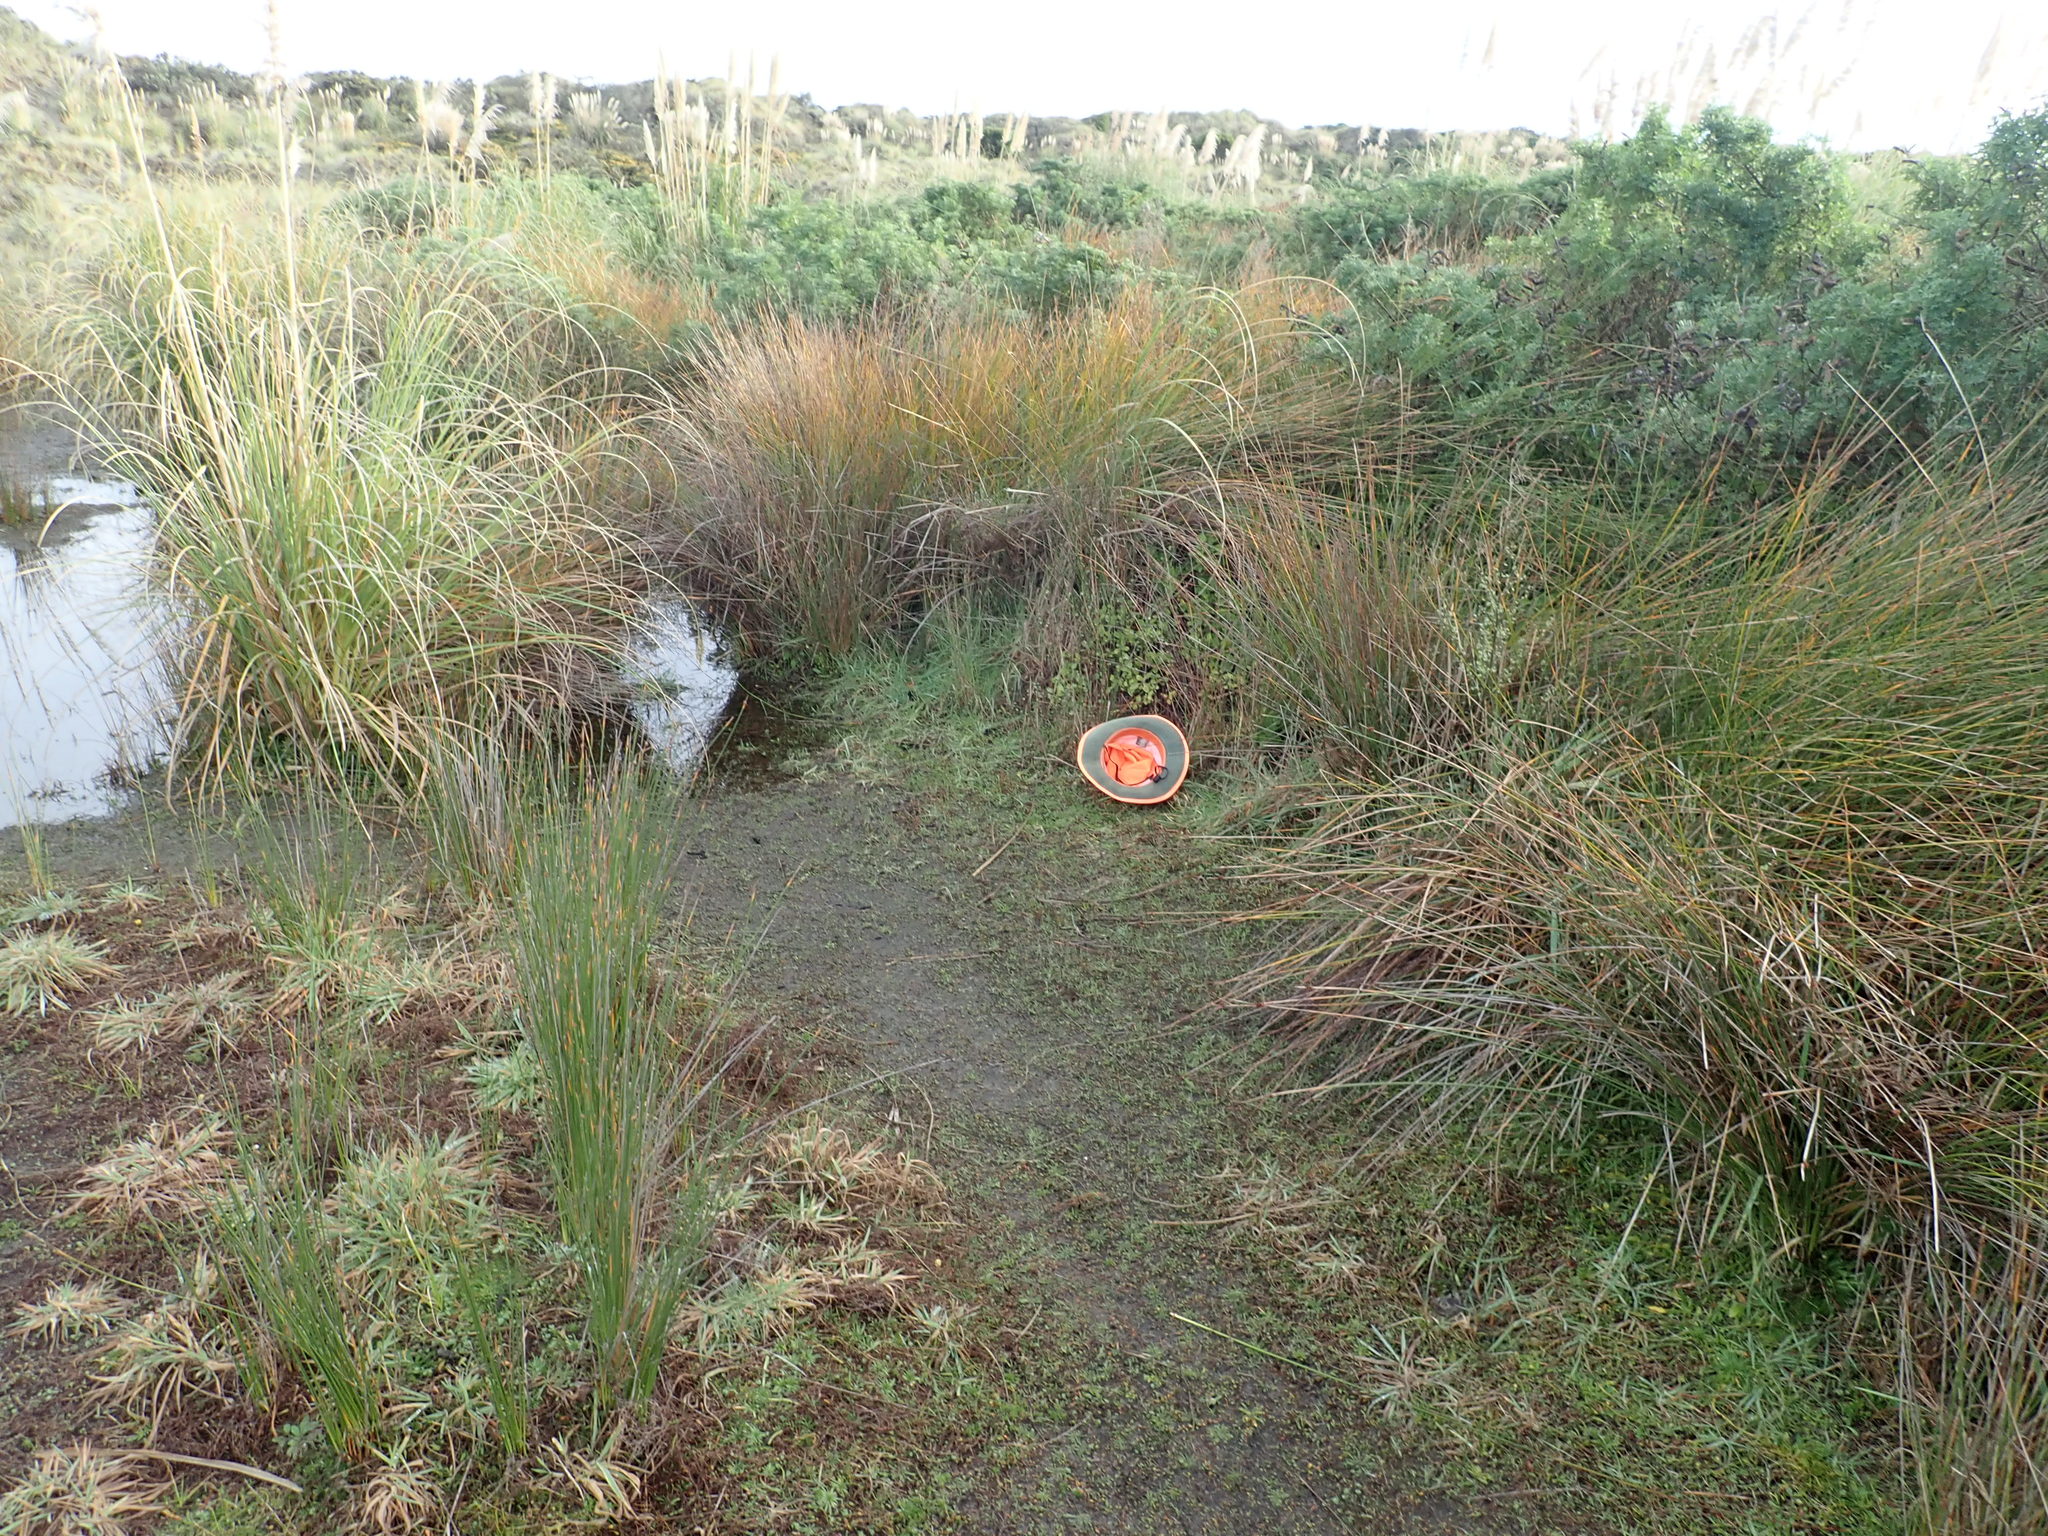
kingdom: Plantae
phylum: Tracheophyta
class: Magnoliopsida
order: Caryophyllales
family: Aizoaceae
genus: Tetragonia
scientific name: Tetragonia implexicoma
